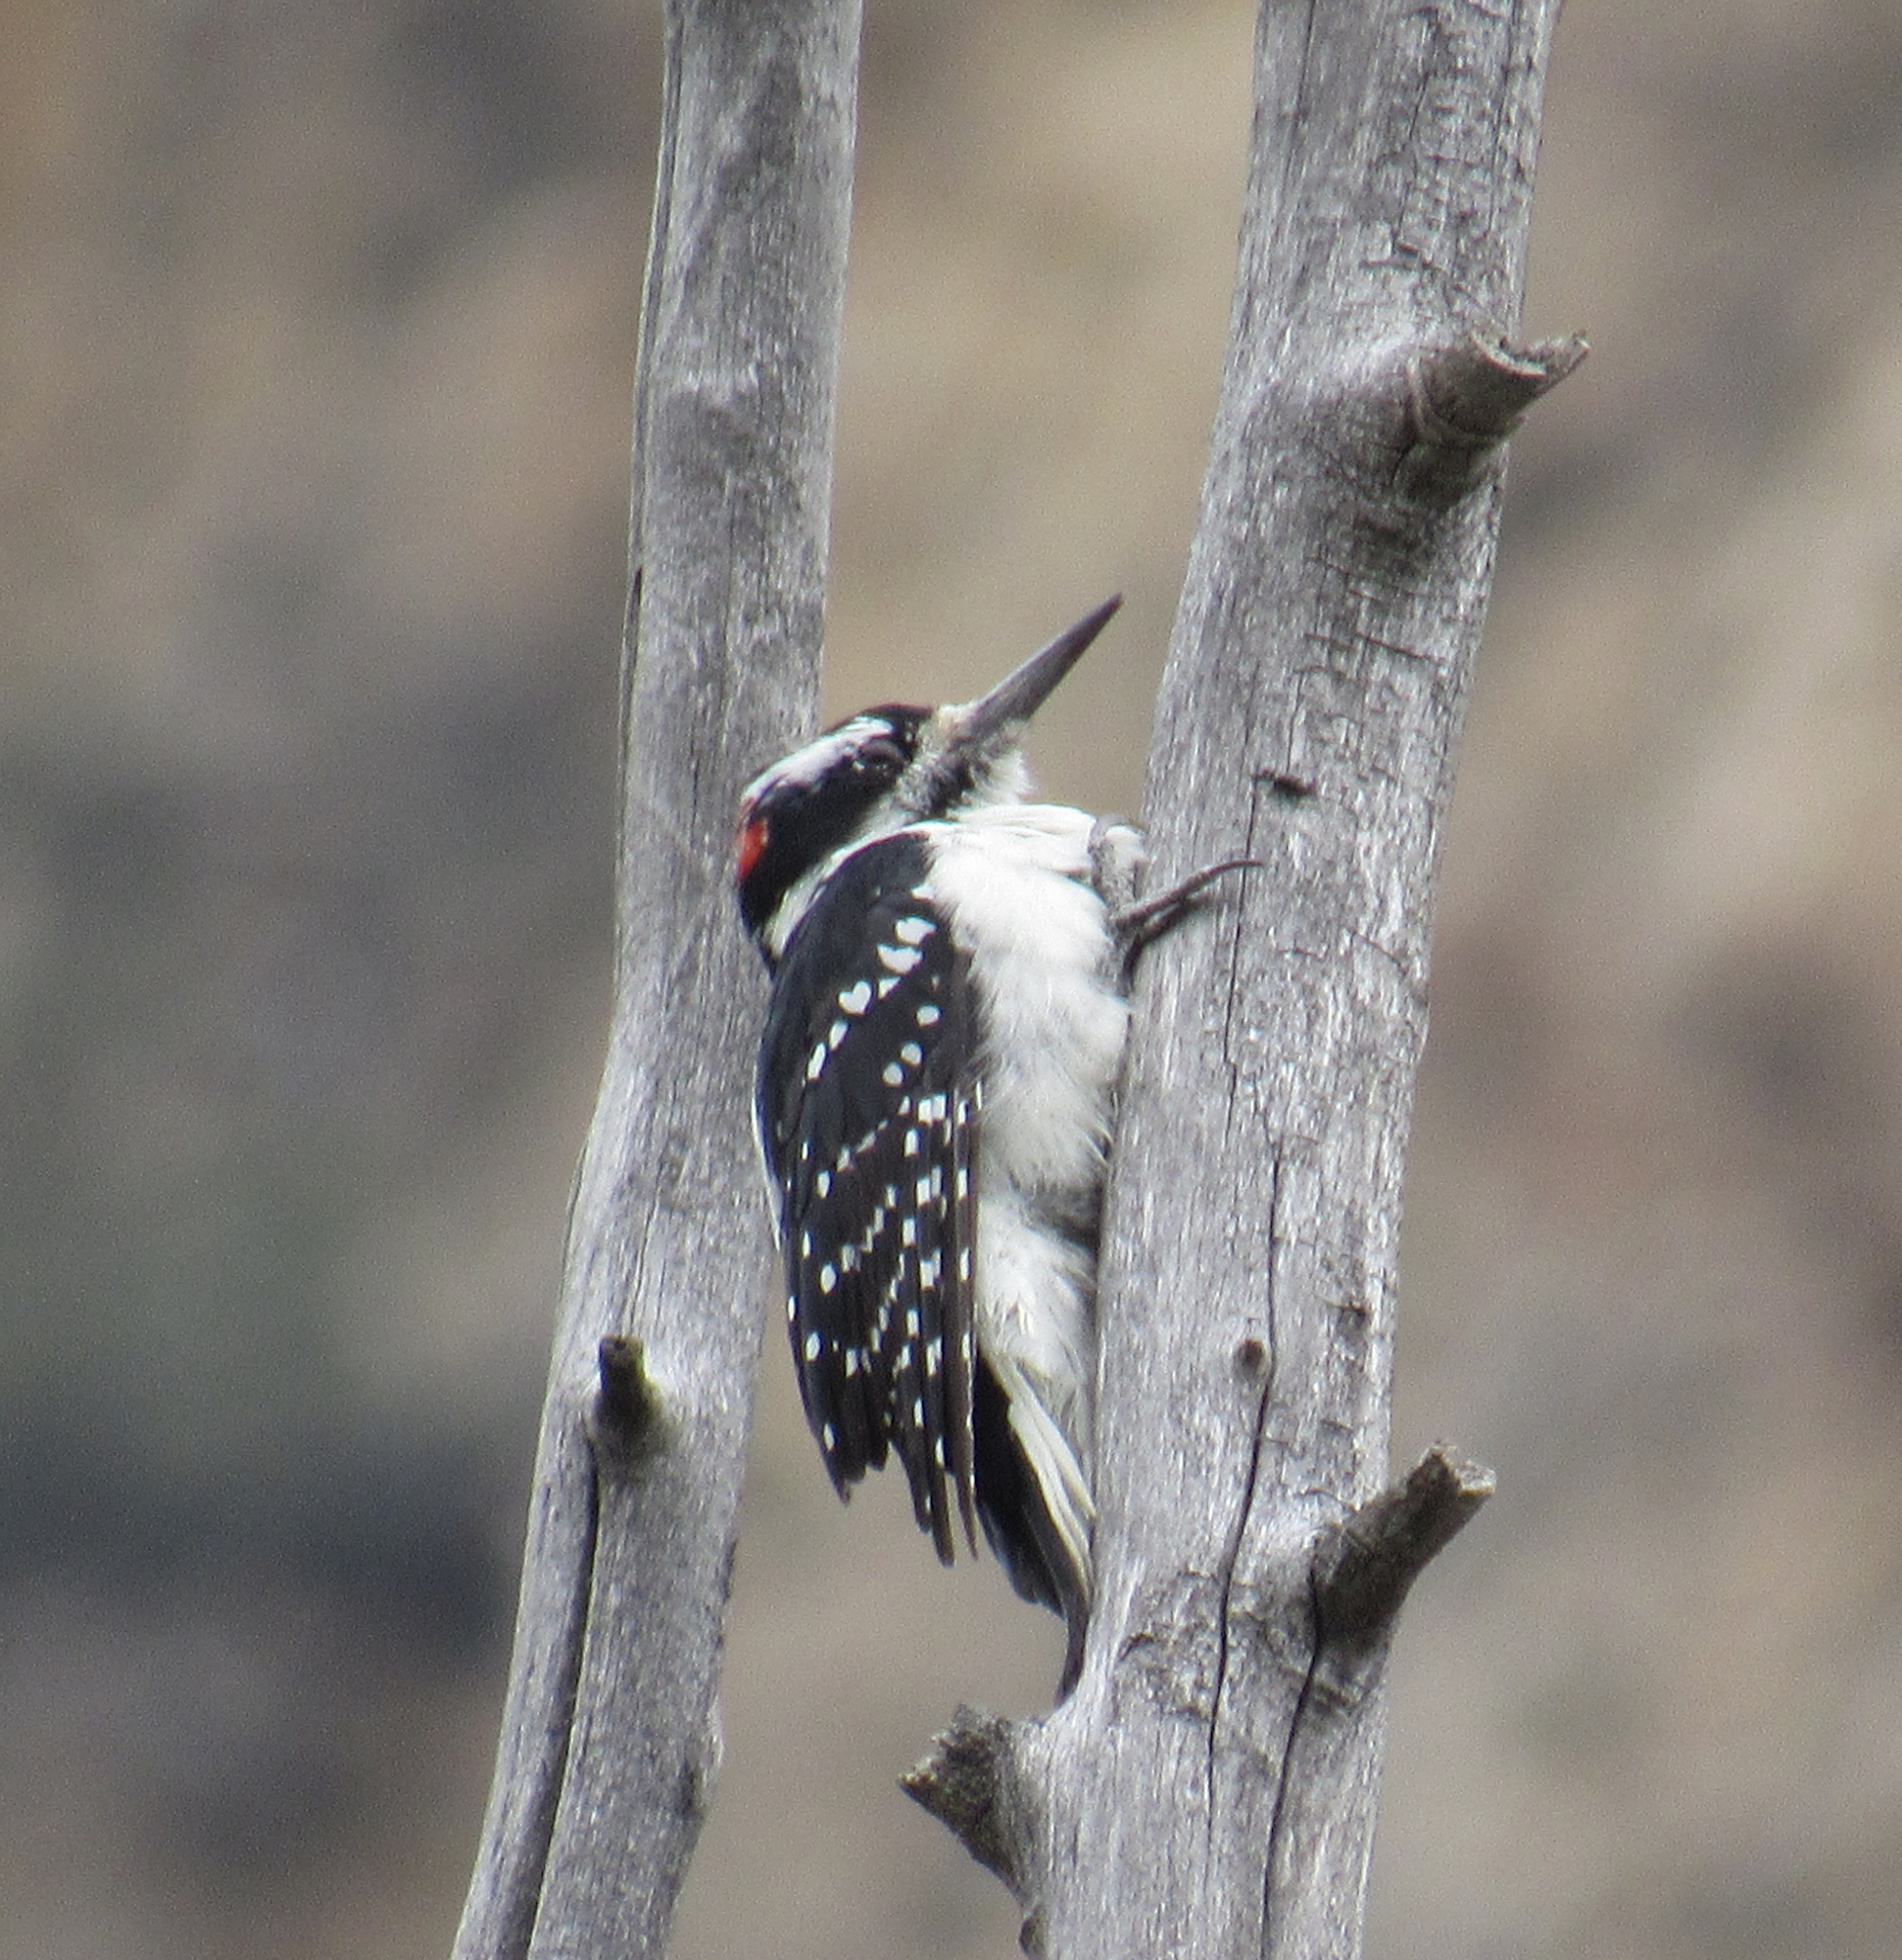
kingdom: Animalia
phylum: Chordata
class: Aves
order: Piciformes
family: Picidae
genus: Leuconotopicus
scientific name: Leuconotopicus villosus
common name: Hairy woodpecker
